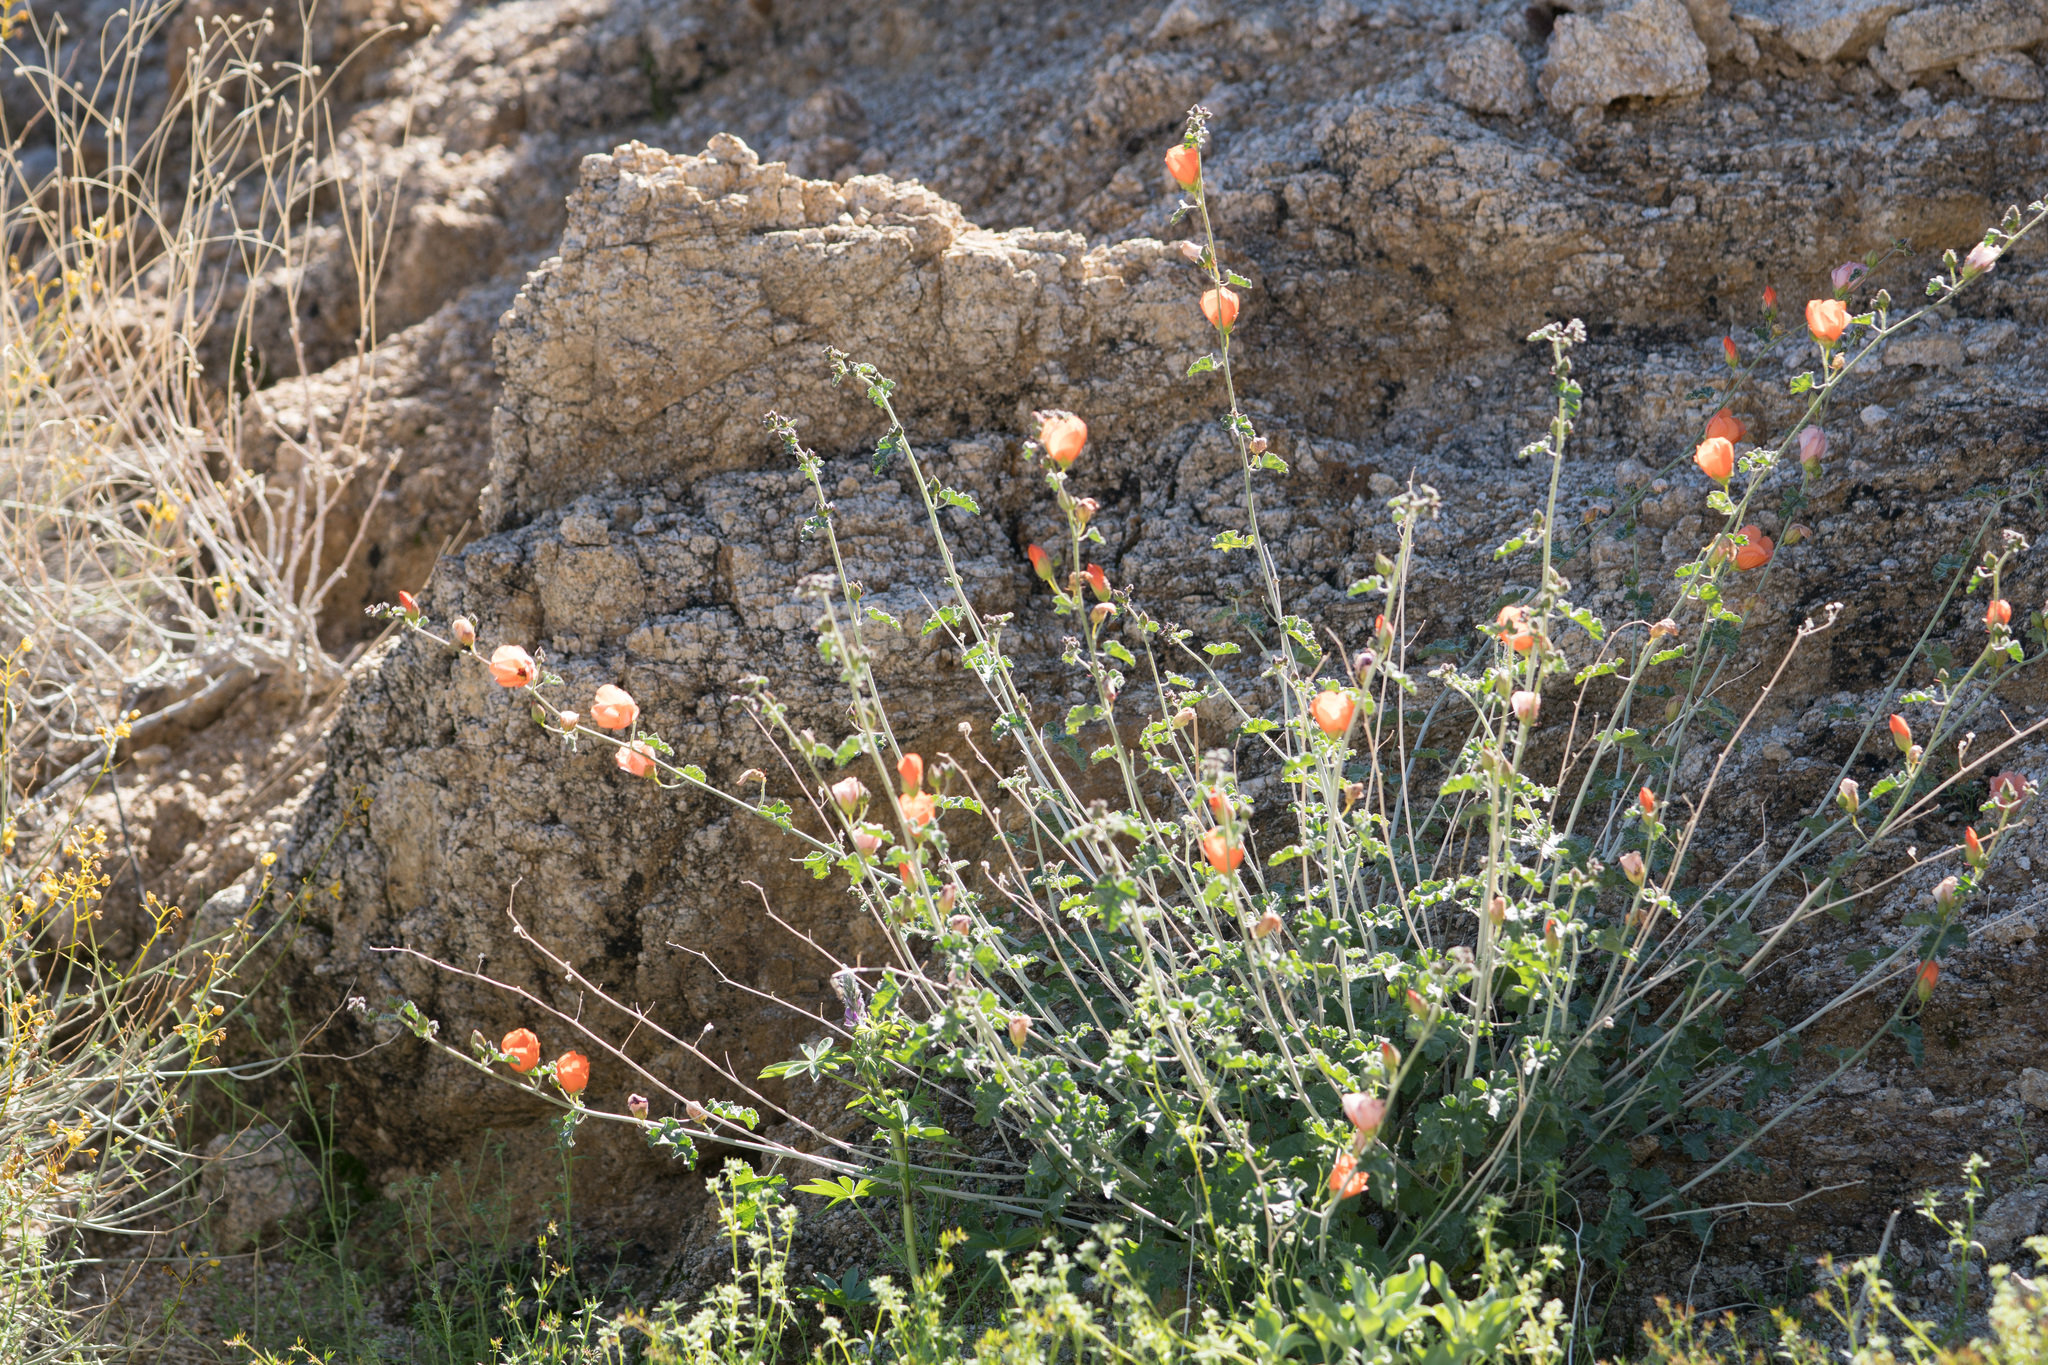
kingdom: Plantae
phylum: Tracheophyta
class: Magnoliopsida
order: Malvales
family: Malvaceae
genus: Sphaeralcea
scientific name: Sphaeralcea ambigua
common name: Apricot globe-mallow
